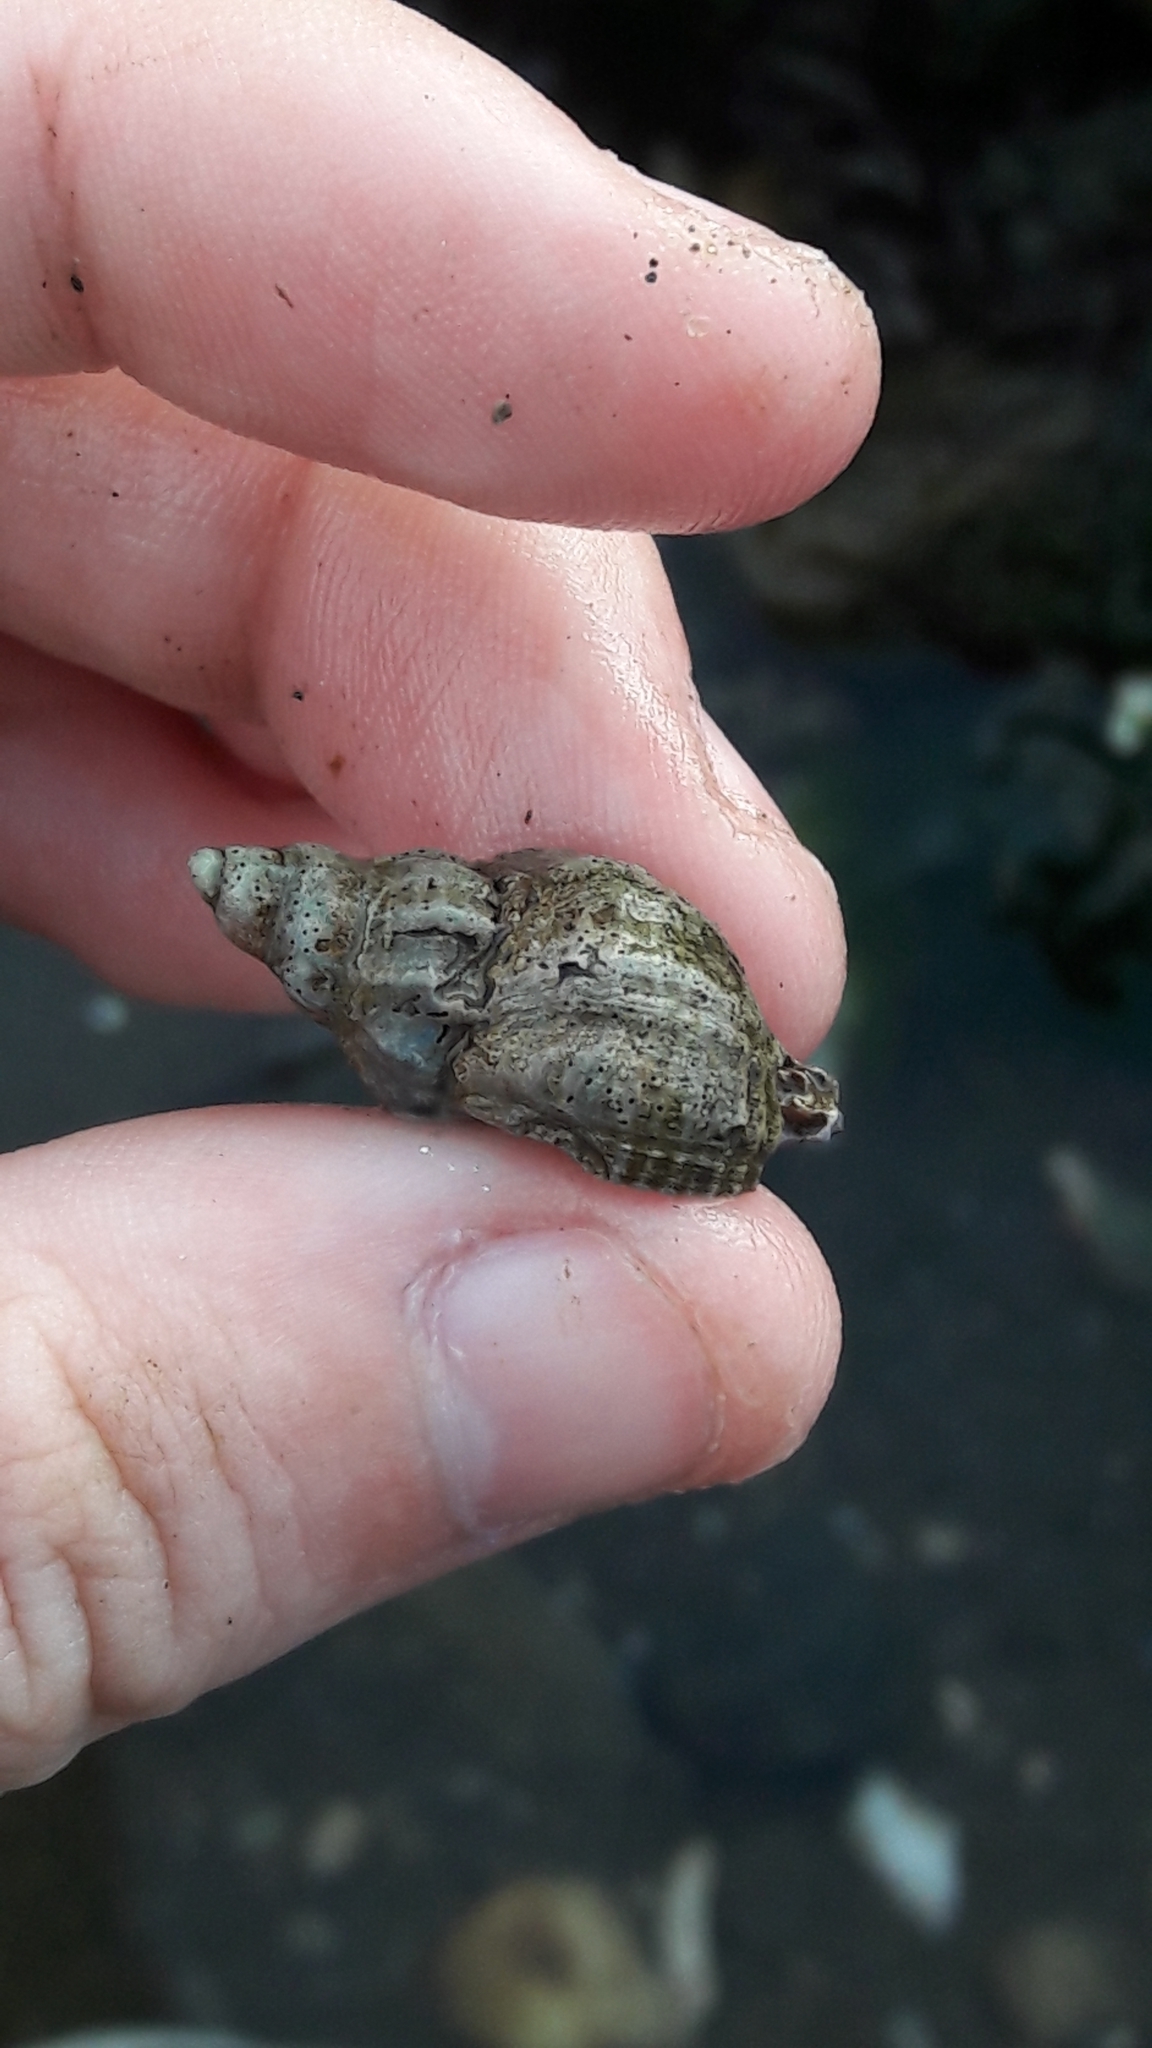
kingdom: Animalia
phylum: Mollusca
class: Gastropoda
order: Neogastropoda
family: Muricidae
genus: Urosalpinx
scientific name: Urosalpinx cinerea
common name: American sting winkle
